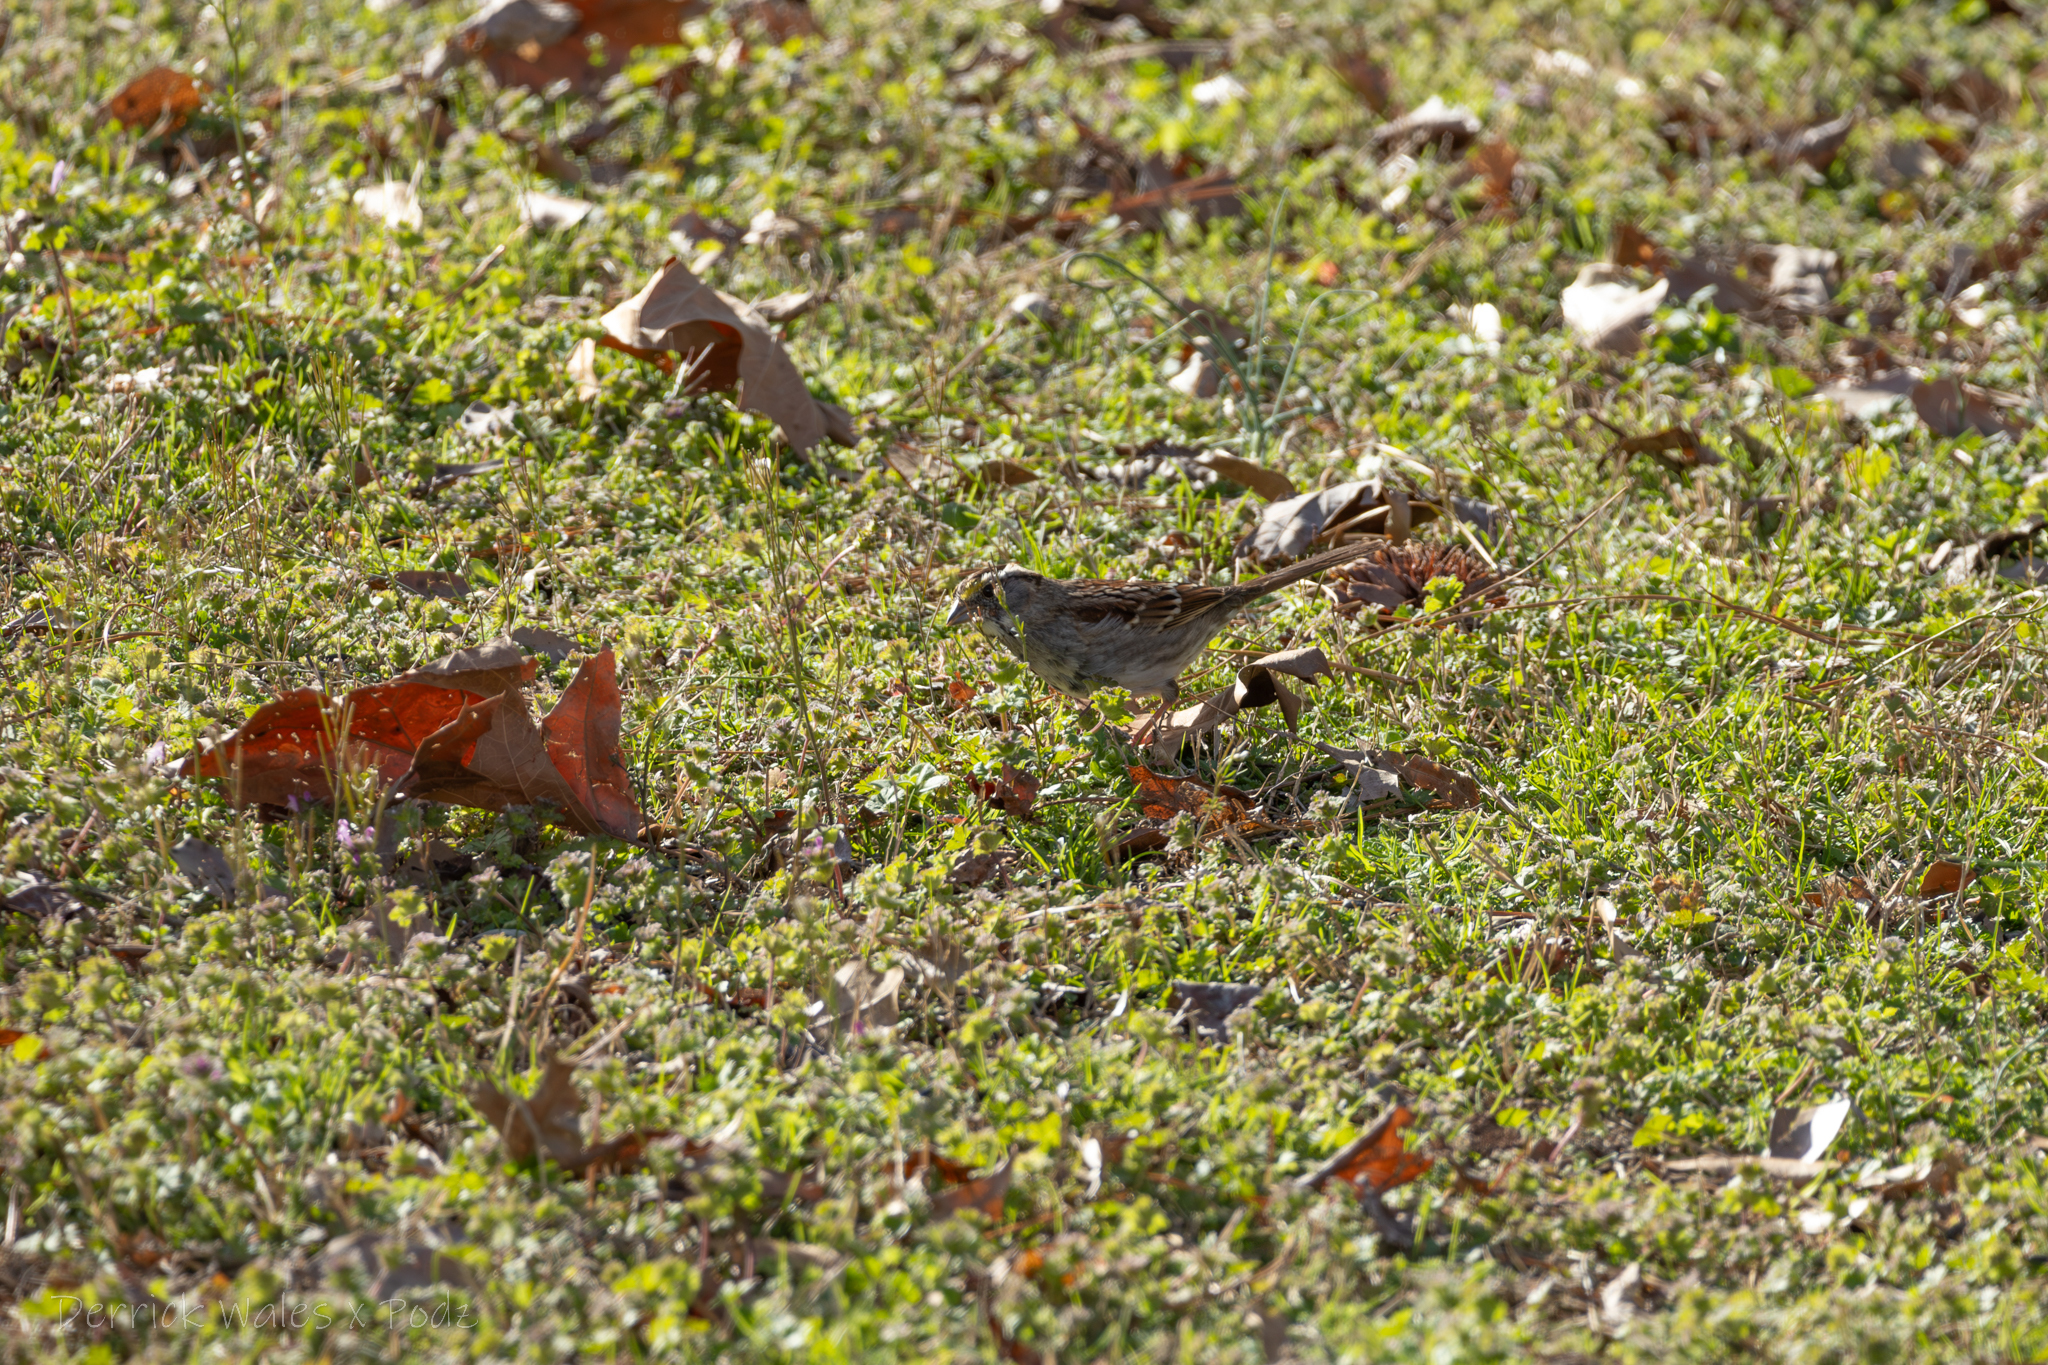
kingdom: Animalia
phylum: Chordata
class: Aves
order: Passeriformes
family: Passerellidae
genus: Zonotrichia
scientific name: Zonotrichia albicollis
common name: White-throated sparrow
